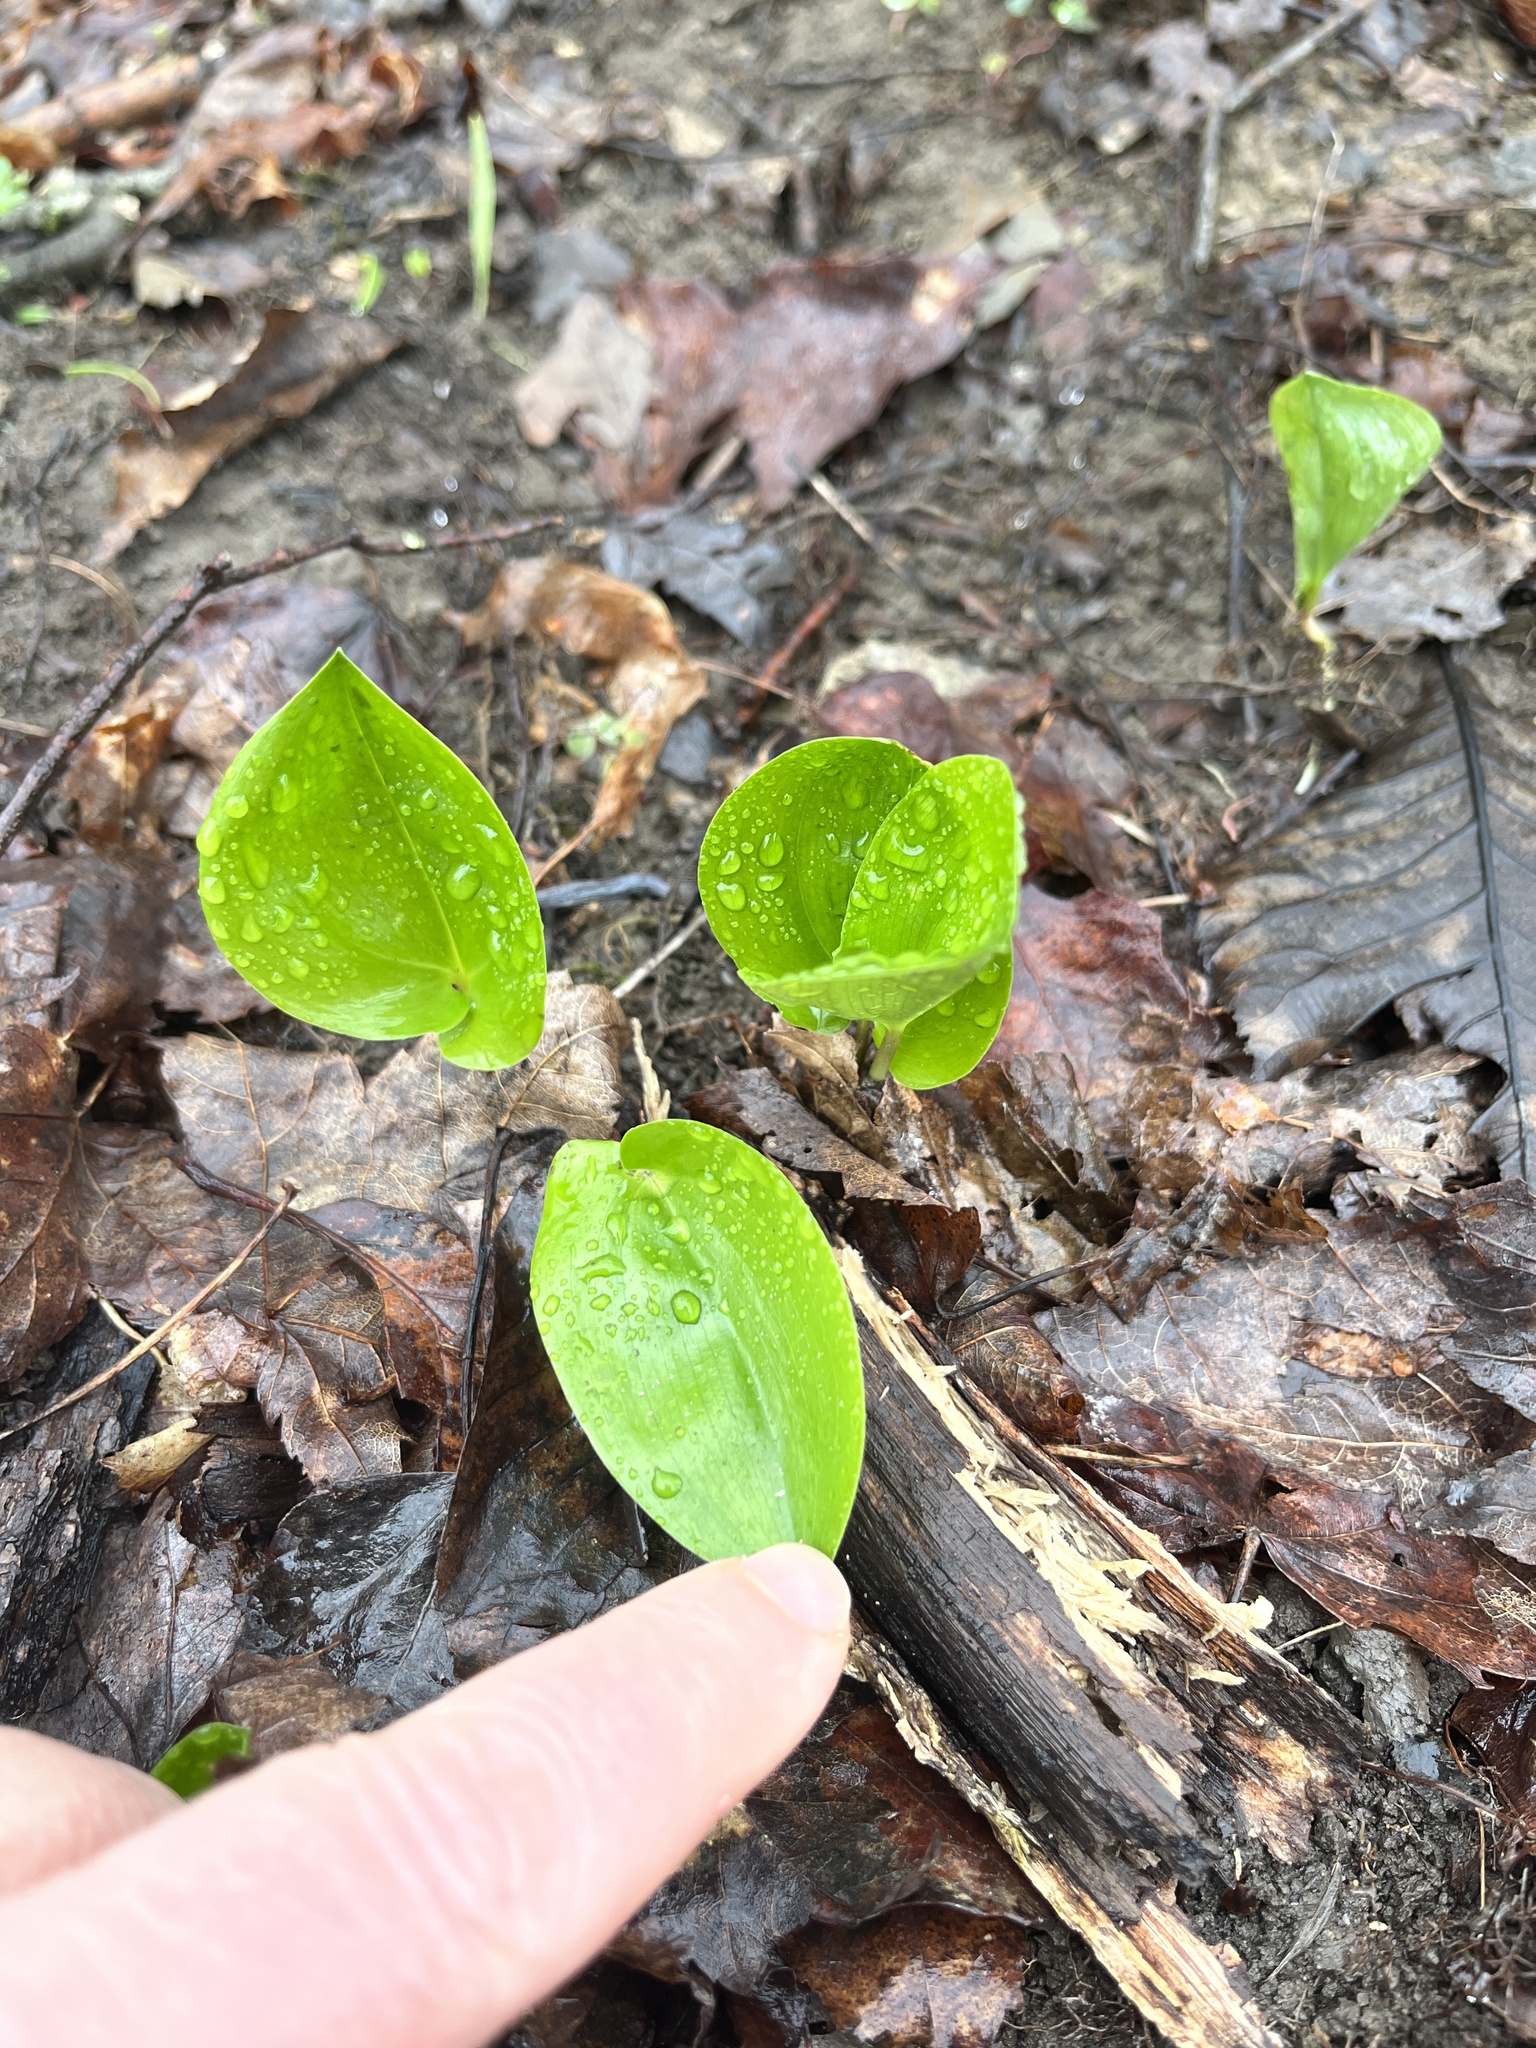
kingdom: Plantae
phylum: Tracheophyta
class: Liliopsida
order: Asparagales
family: Asparagaceae
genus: Maianthemum
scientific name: Maianthemum canadense
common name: False lily-of-the-valley
